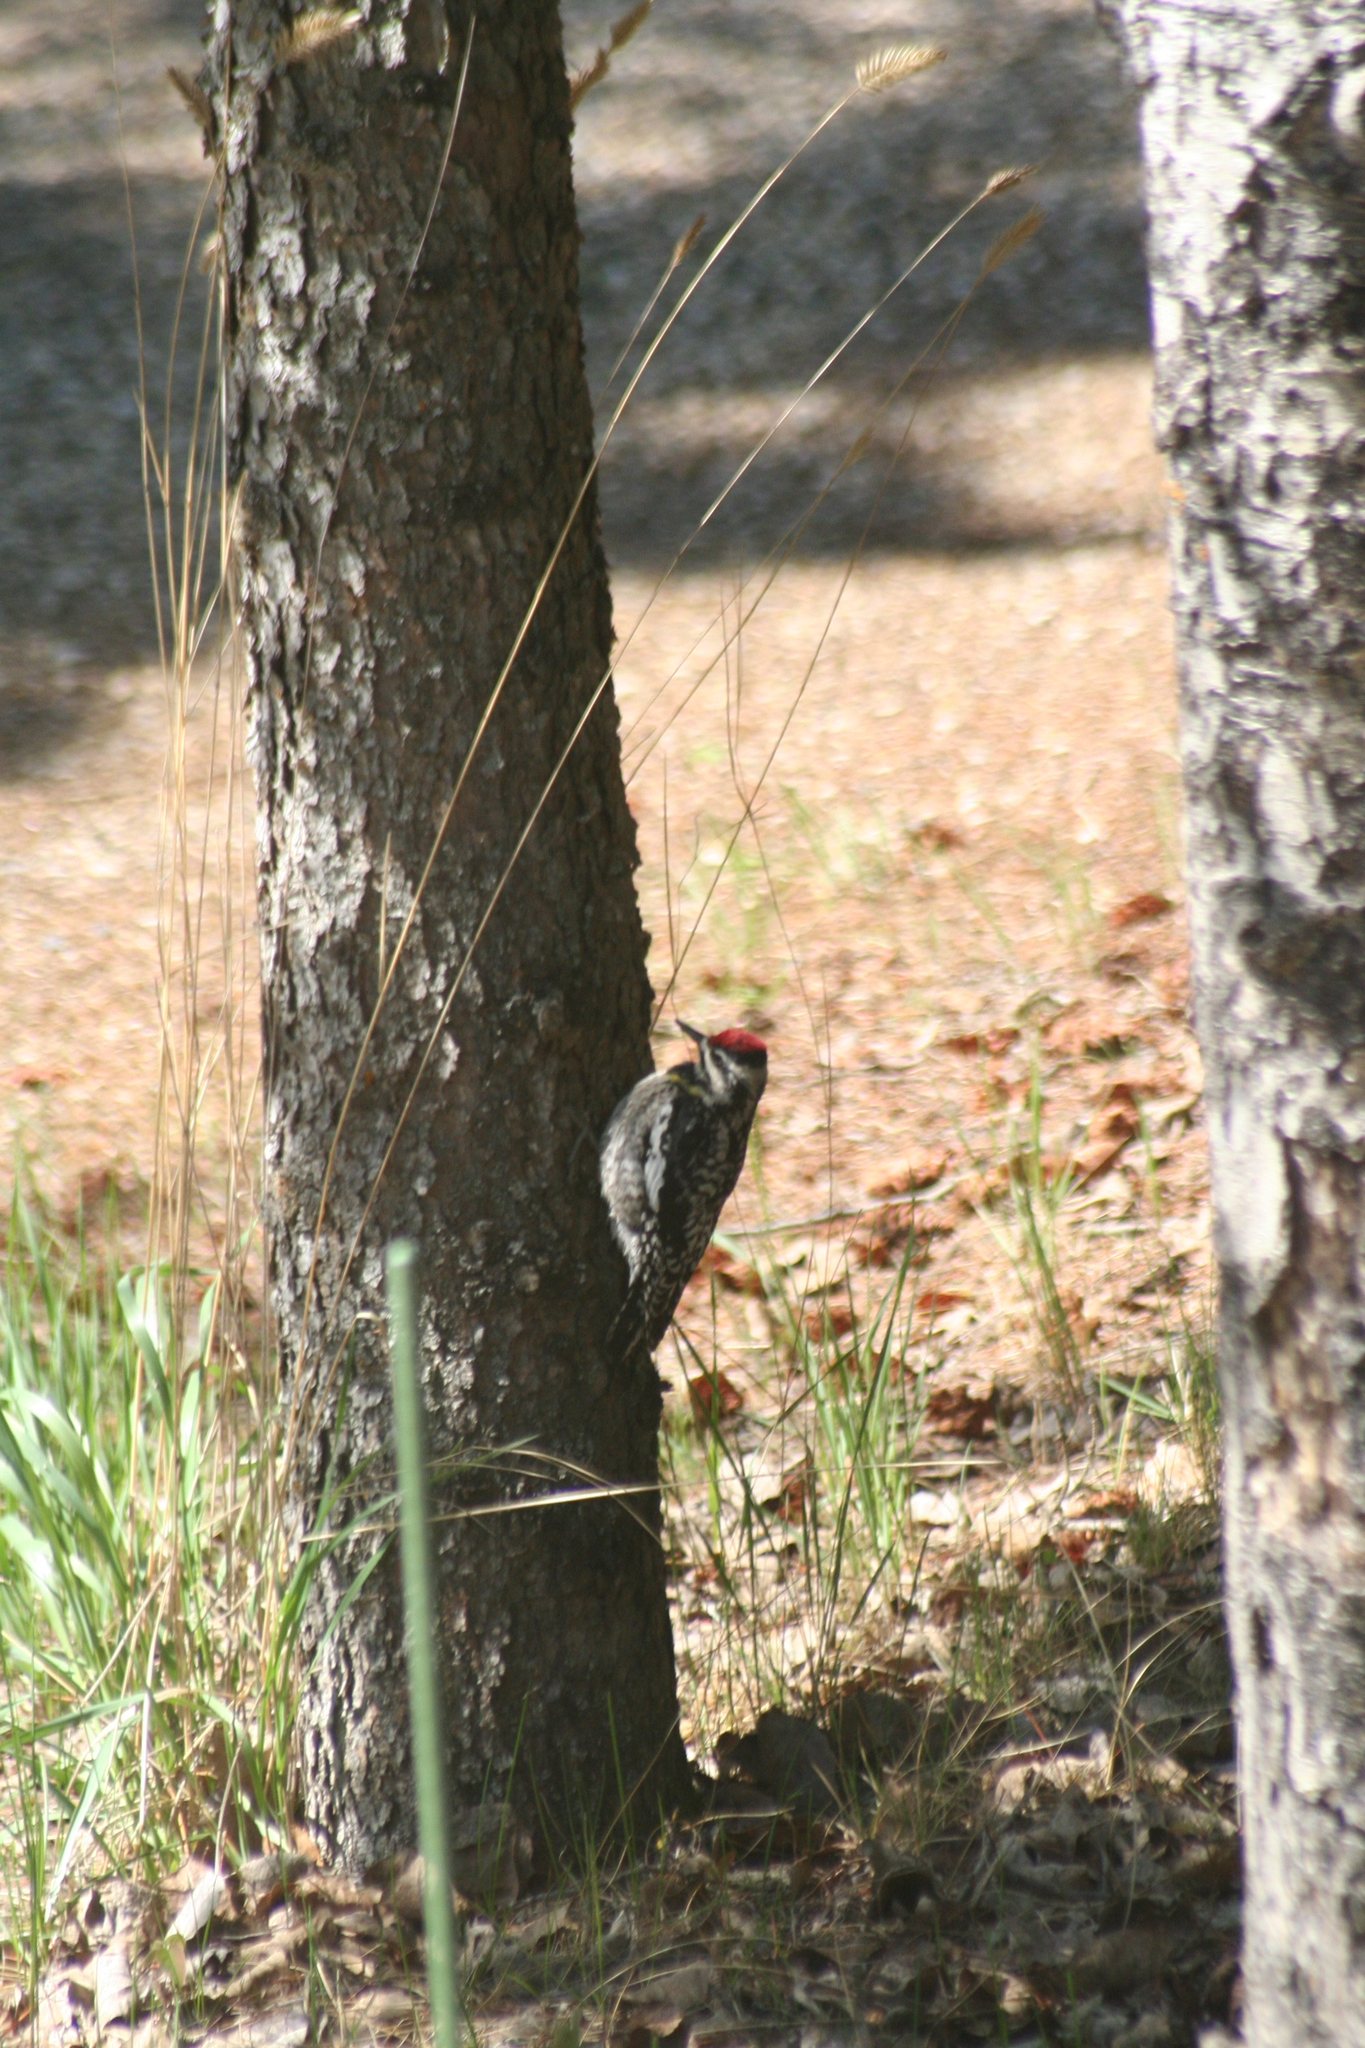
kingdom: Animalia
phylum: Chordata
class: Aves
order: Piciformes
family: Picidae
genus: Sphyrapicus
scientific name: Sphyrapicus varius
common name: Yellow-bellied sapsucker
